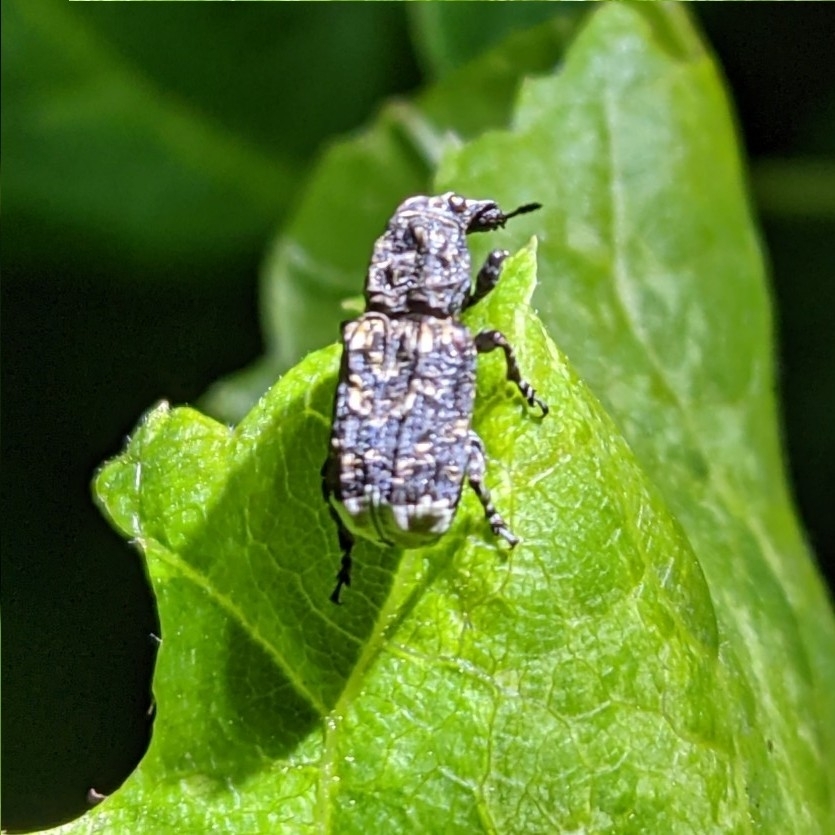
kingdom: Animalia
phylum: Arthropoda
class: Insecta
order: Coleoptera
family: Anthribidae
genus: Platyrhinus
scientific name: Platyrhinus resinosus
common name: Cramp-ball fungus weevil
